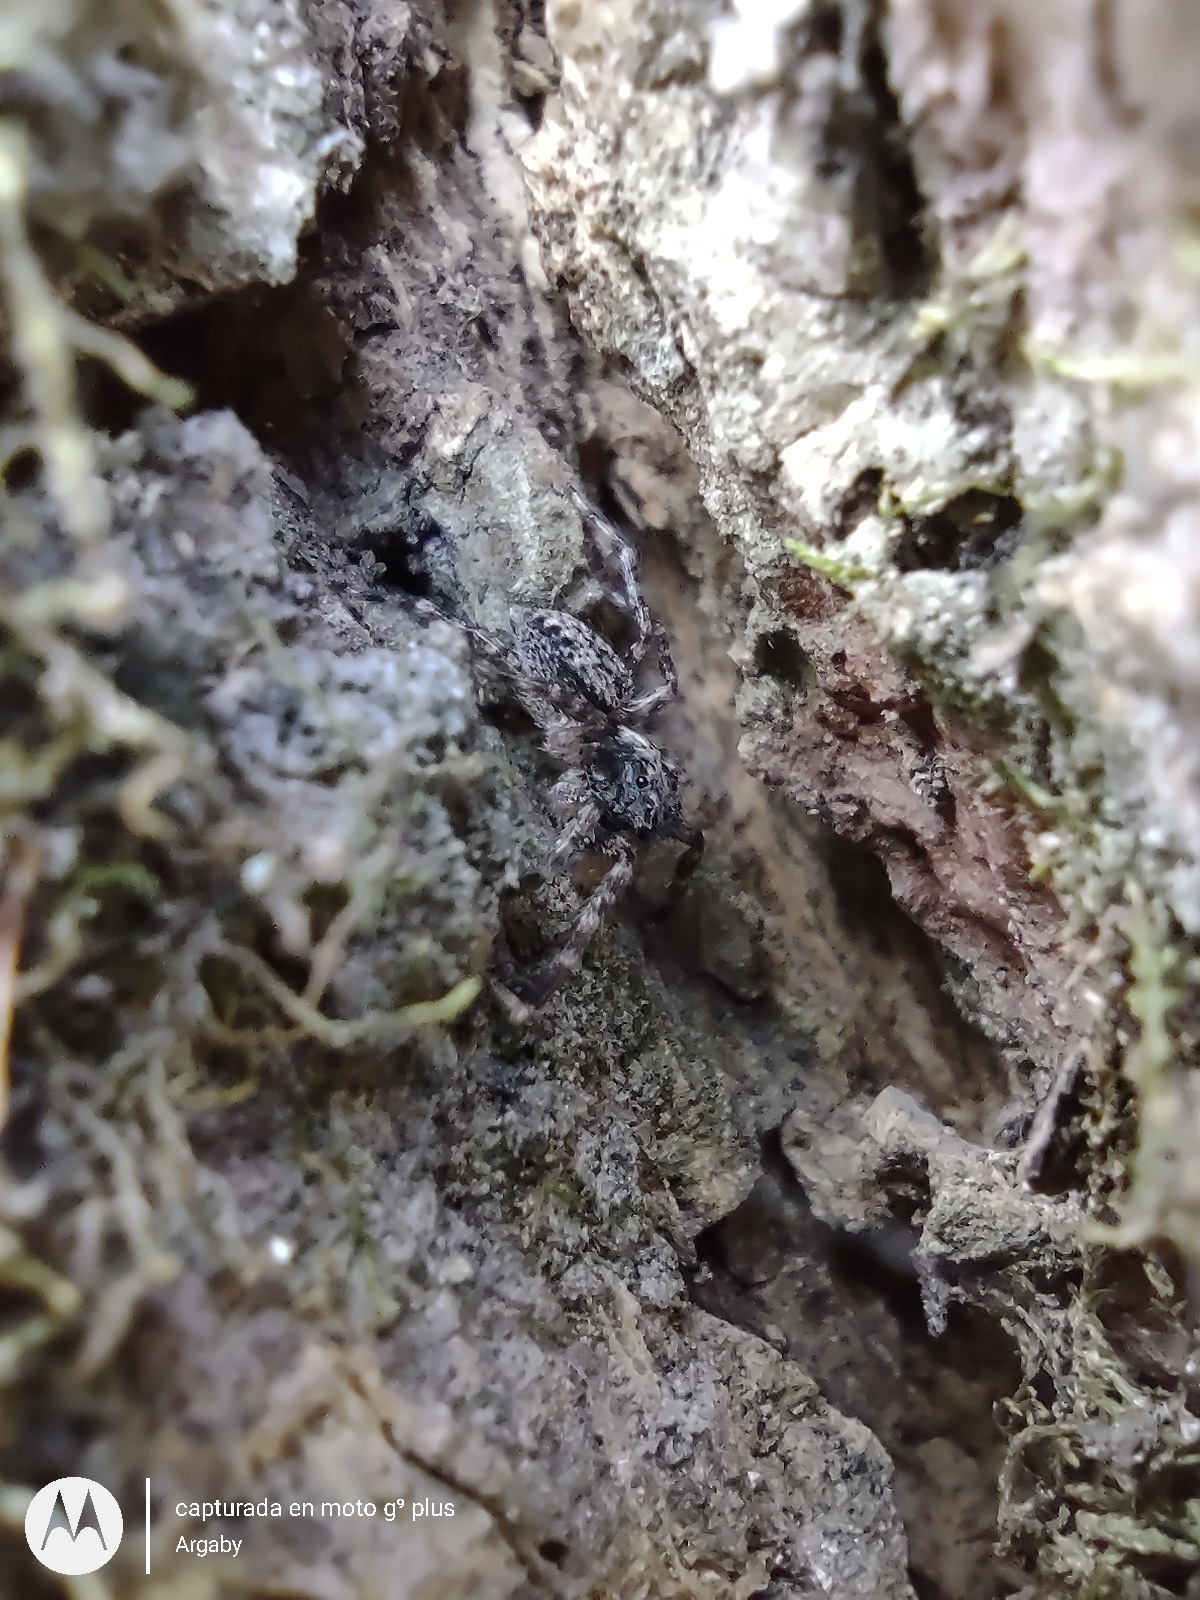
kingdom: Animalia
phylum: Arthropoda
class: Arachnida
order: Araneae
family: Salticidae
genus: Titanattus
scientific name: Titanattus andinus
